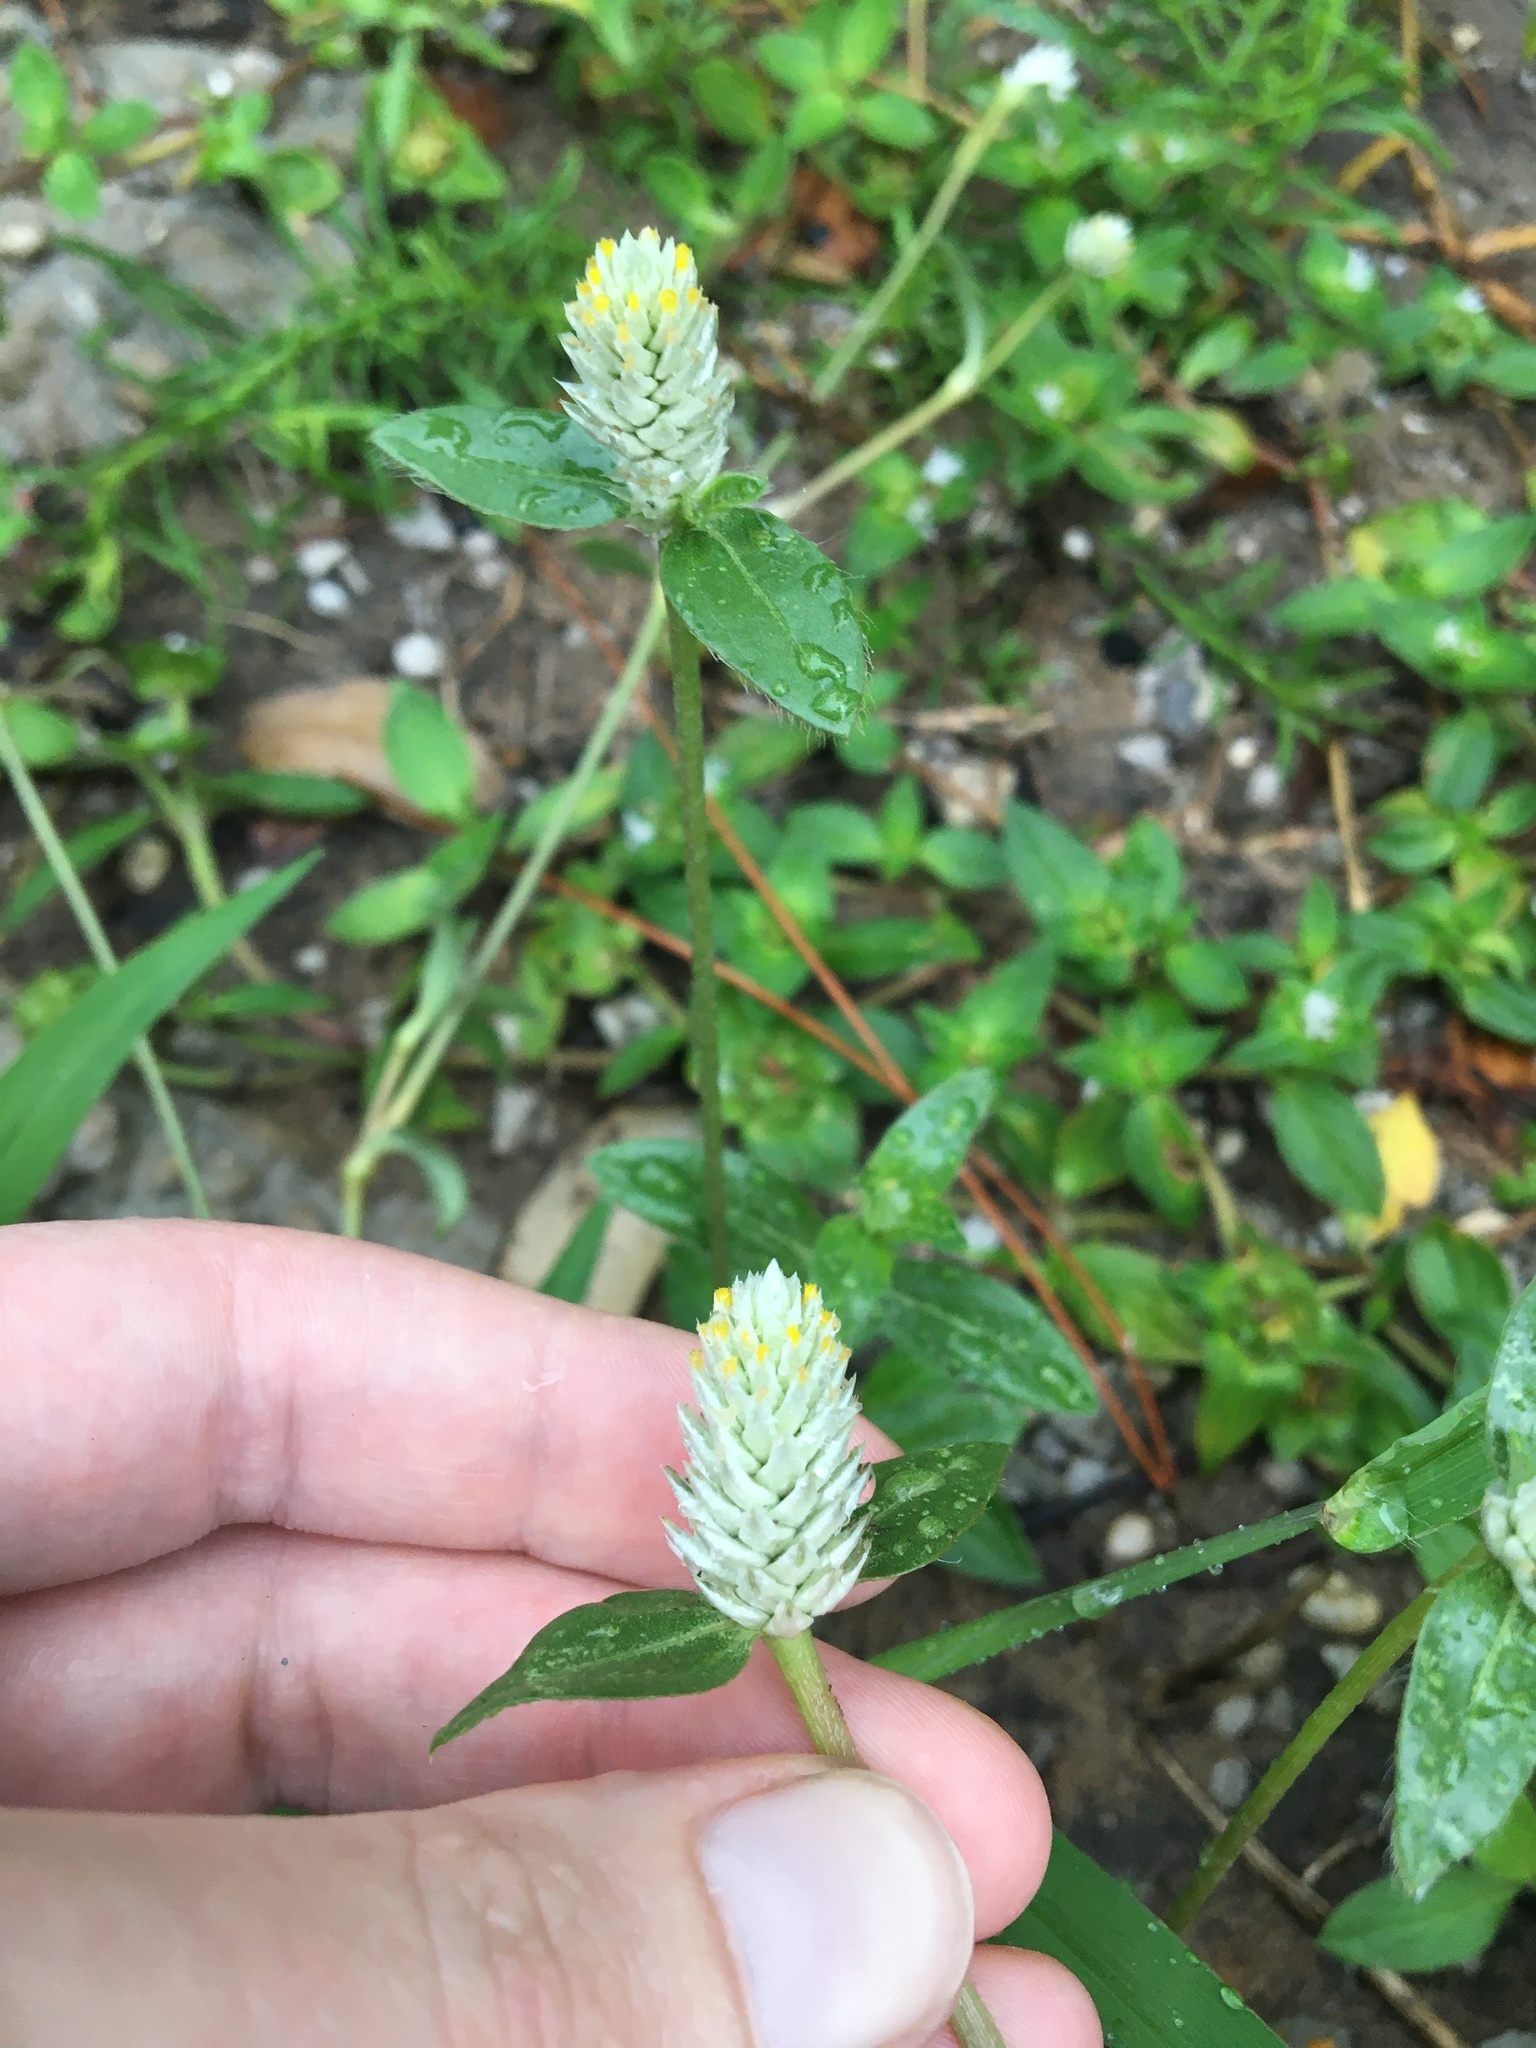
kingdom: Plantae
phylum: Tracheophyta
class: Magnoliopsida
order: Caryophyllales
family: Amaranthaceae
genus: Gomphrena
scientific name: Gomphrena serrata
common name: Arrasa con todo
